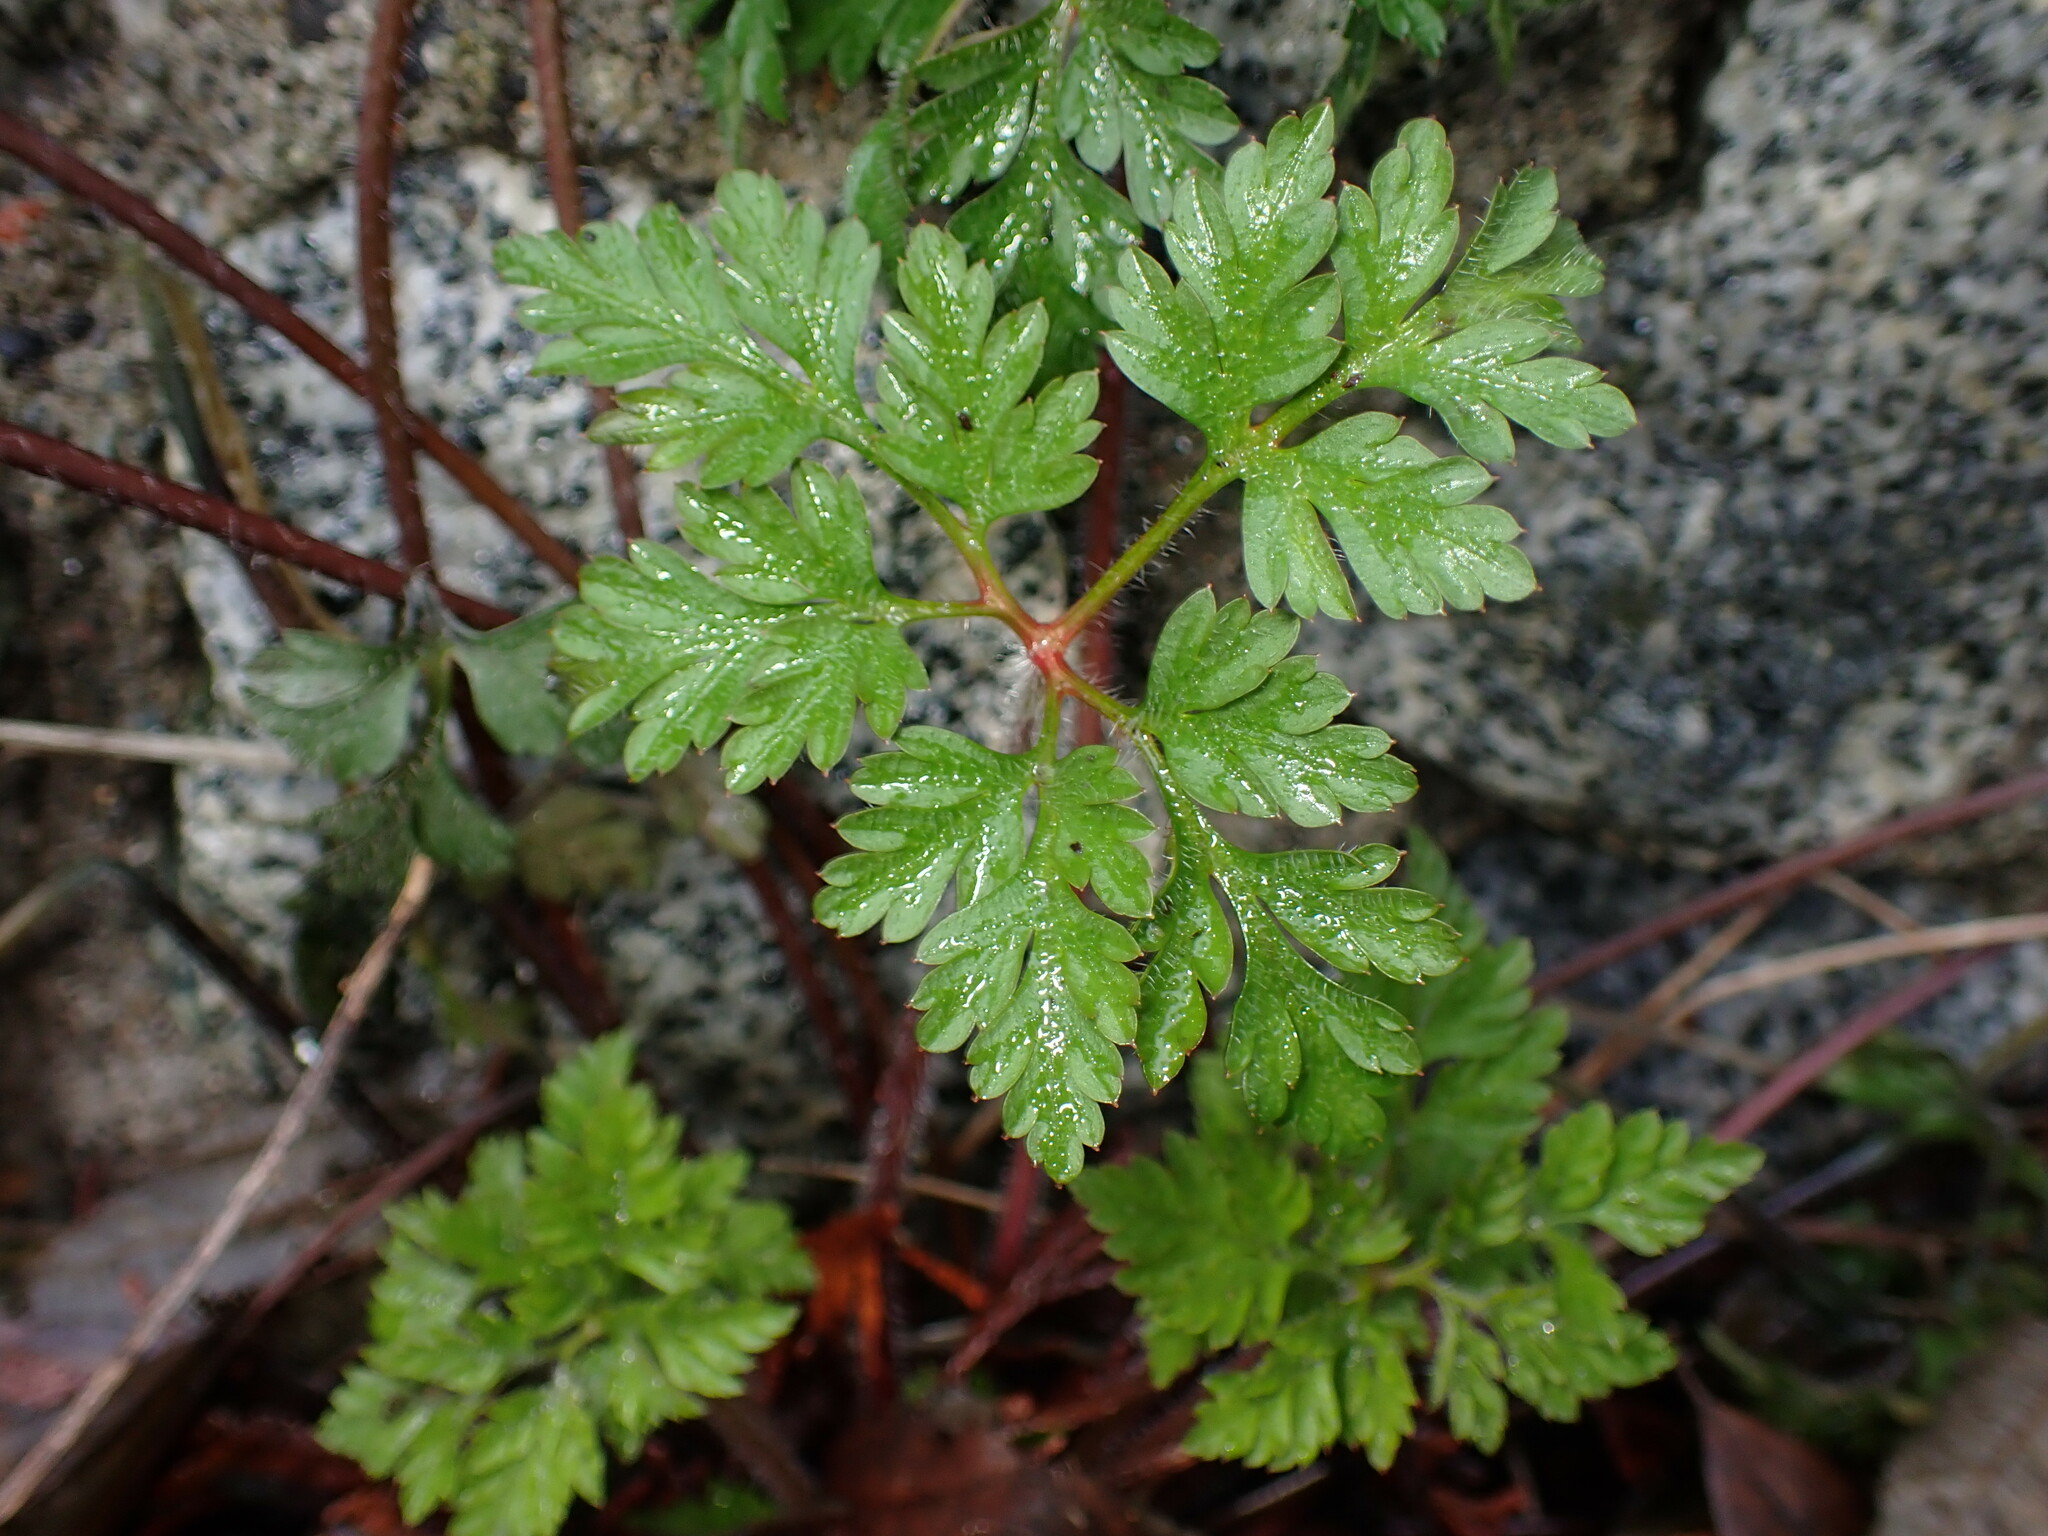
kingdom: Plantae
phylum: Tracheophyta
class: Magnoliopsida
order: Geraniales
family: Geraniaceae
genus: Geranium
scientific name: Geranium robertianum
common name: Herb-robert
